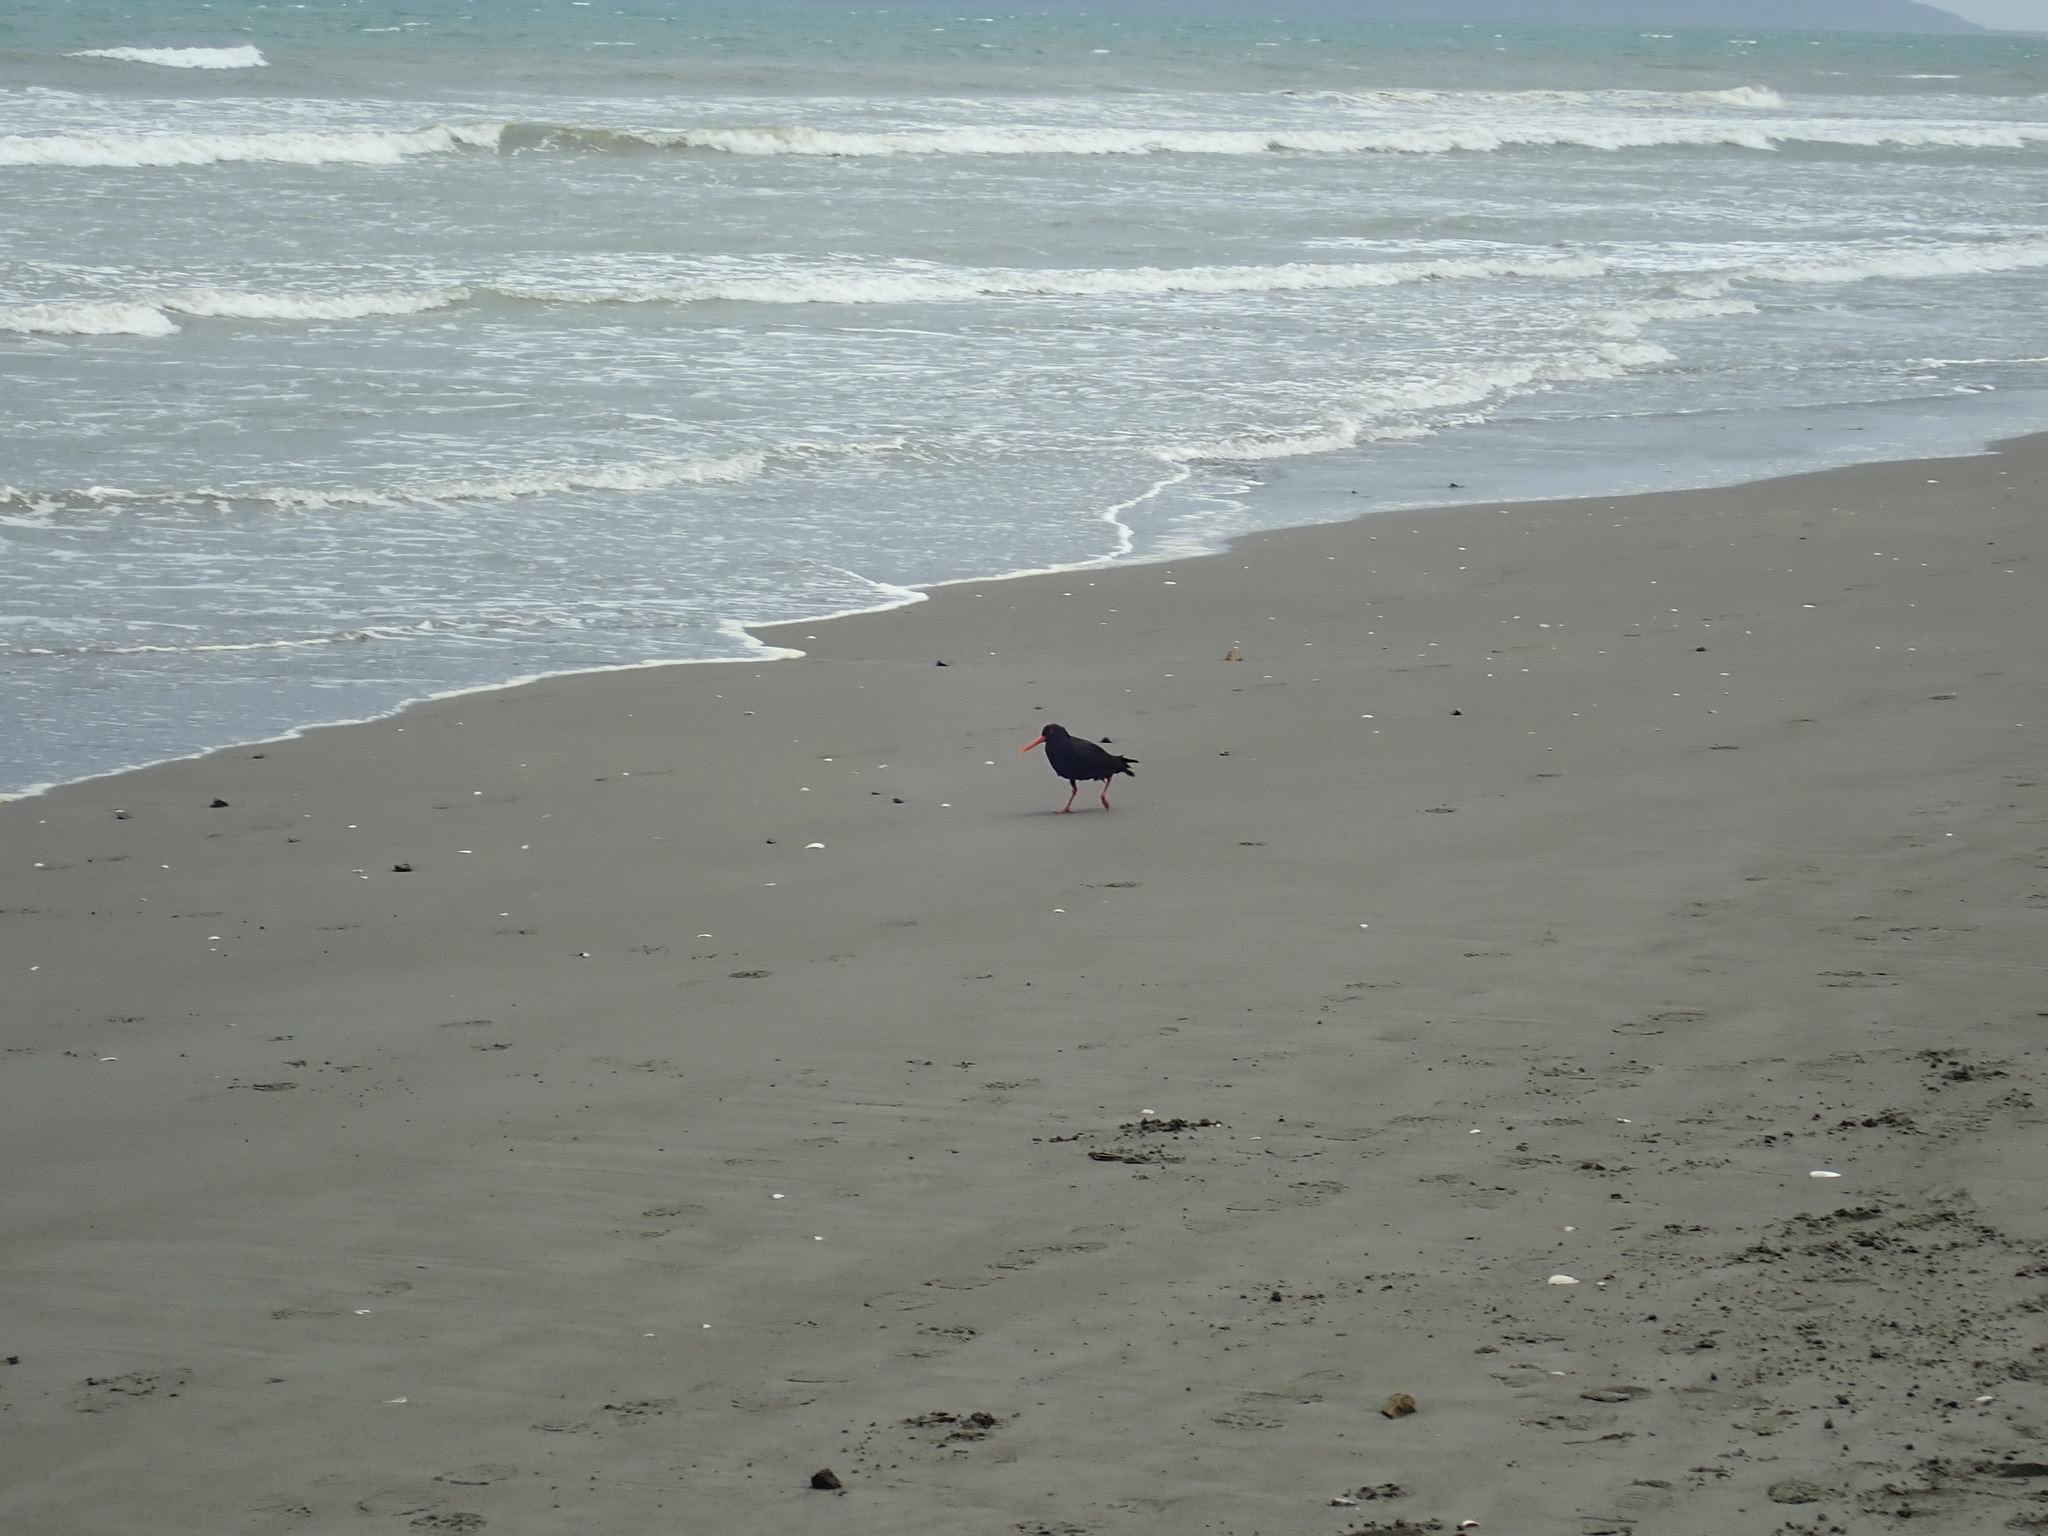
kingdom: Animalia
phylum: Chordata
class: Aves
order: Charadriiformes
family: Haematopodidae
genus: Haematopus
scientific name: Haematopus unicolor
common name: Variable oystercatcher
